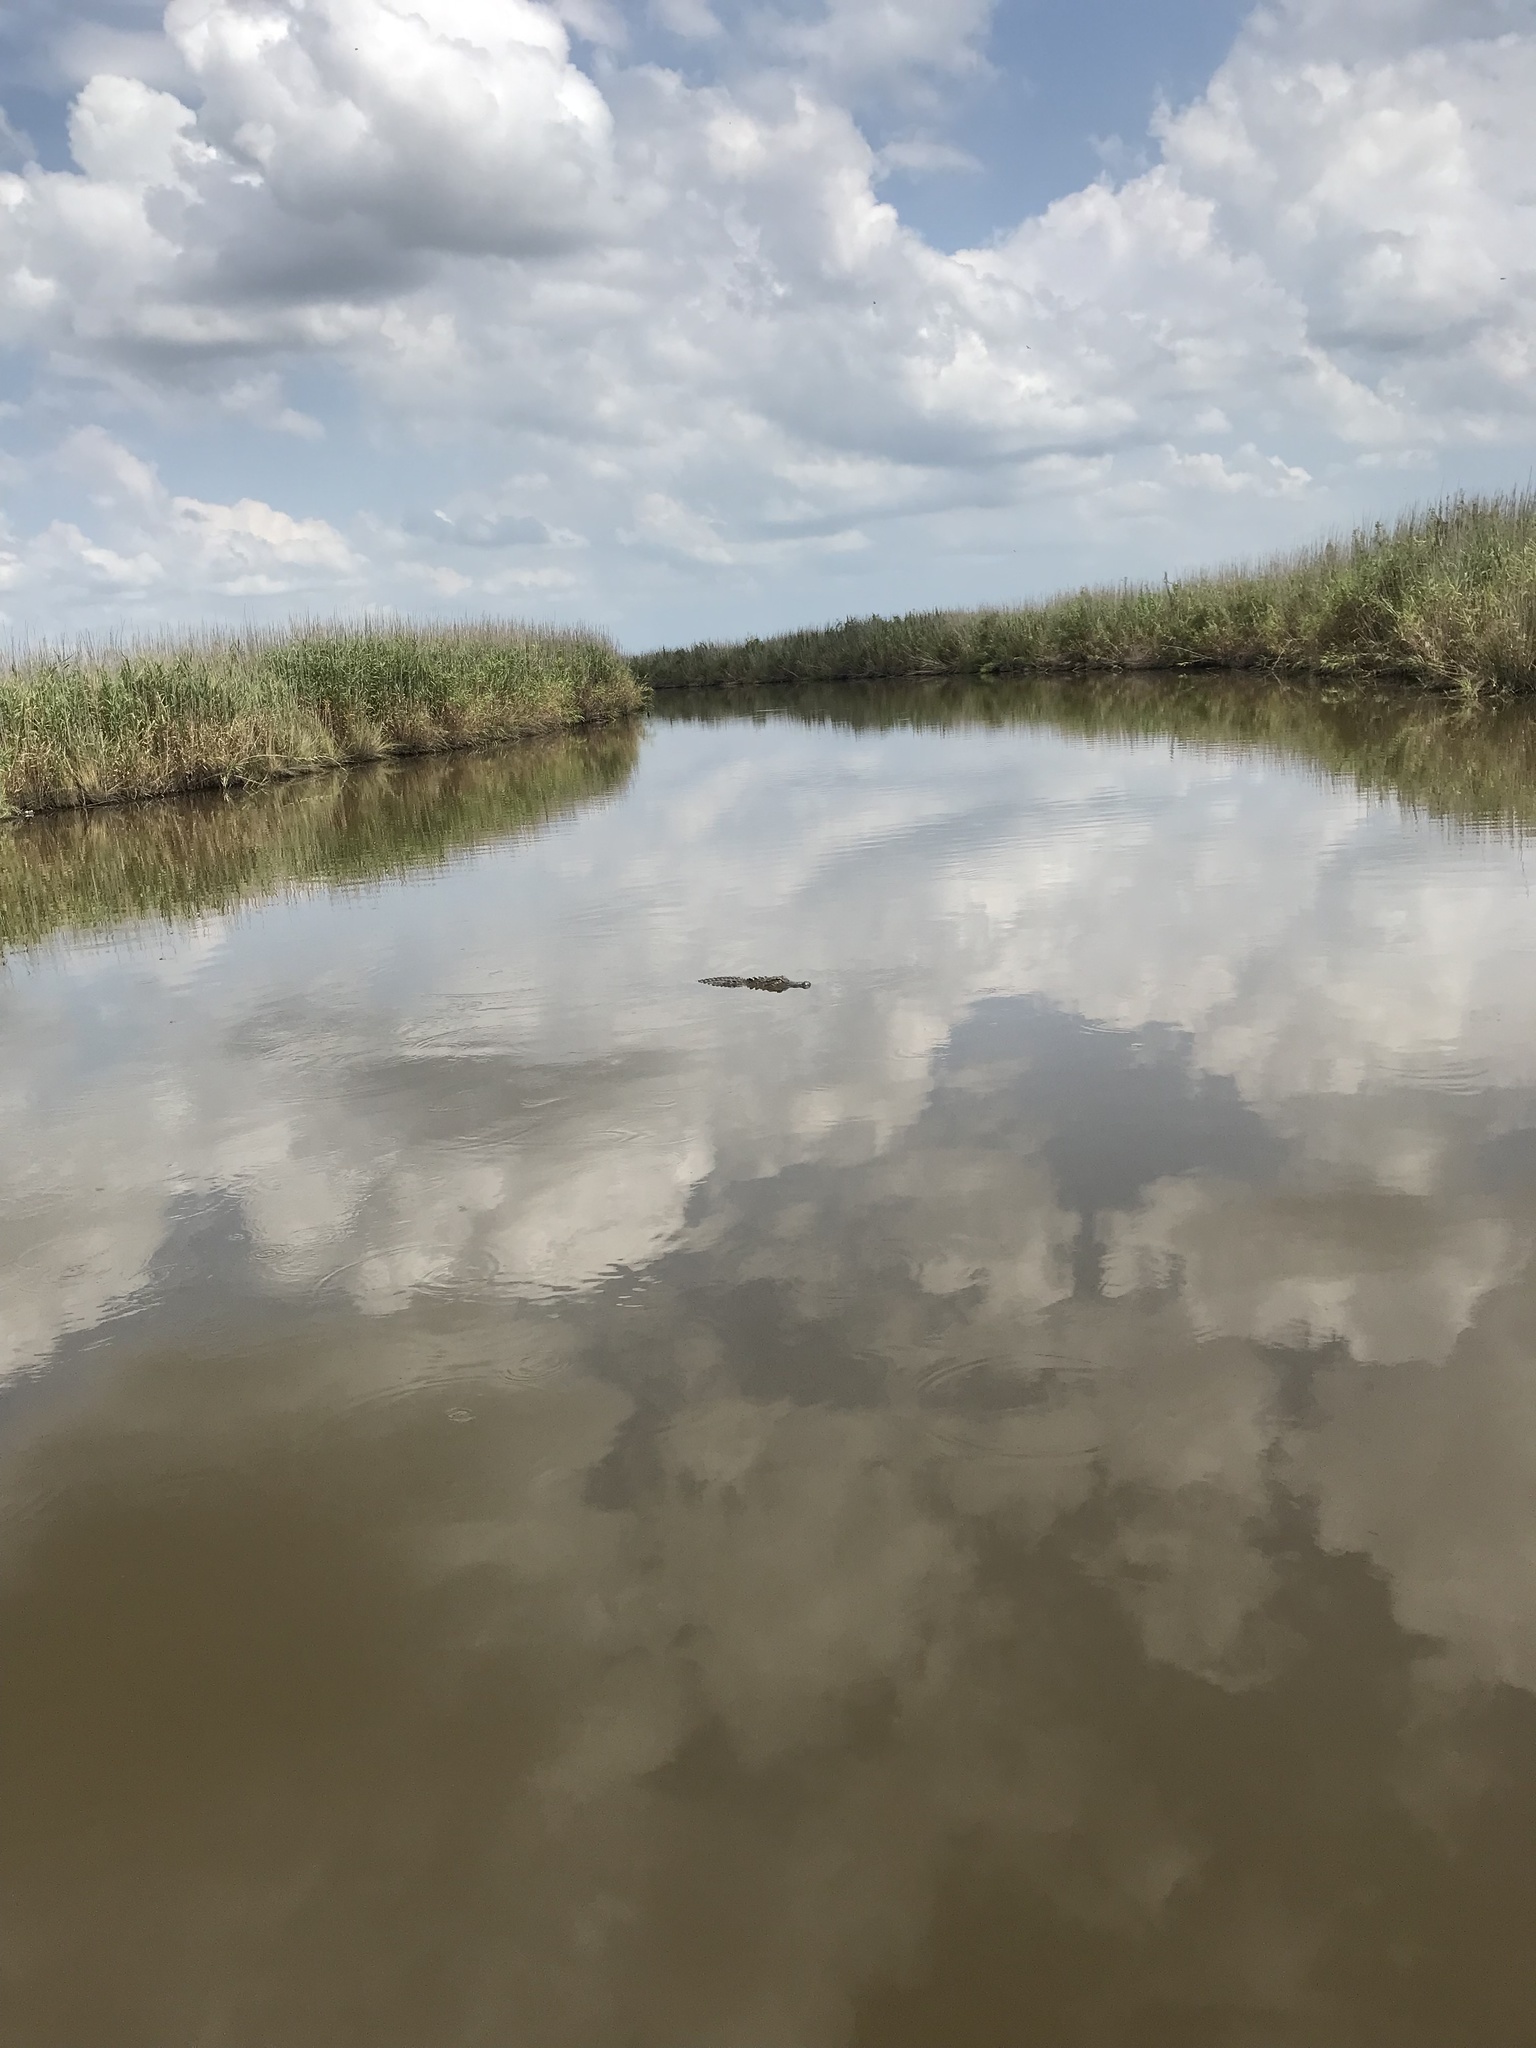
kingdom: Animalia
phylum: Chordata
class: Crocodylia
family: Alligatoridae
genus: Alligator
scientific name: Alligator mississippiensis
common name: American alligator
